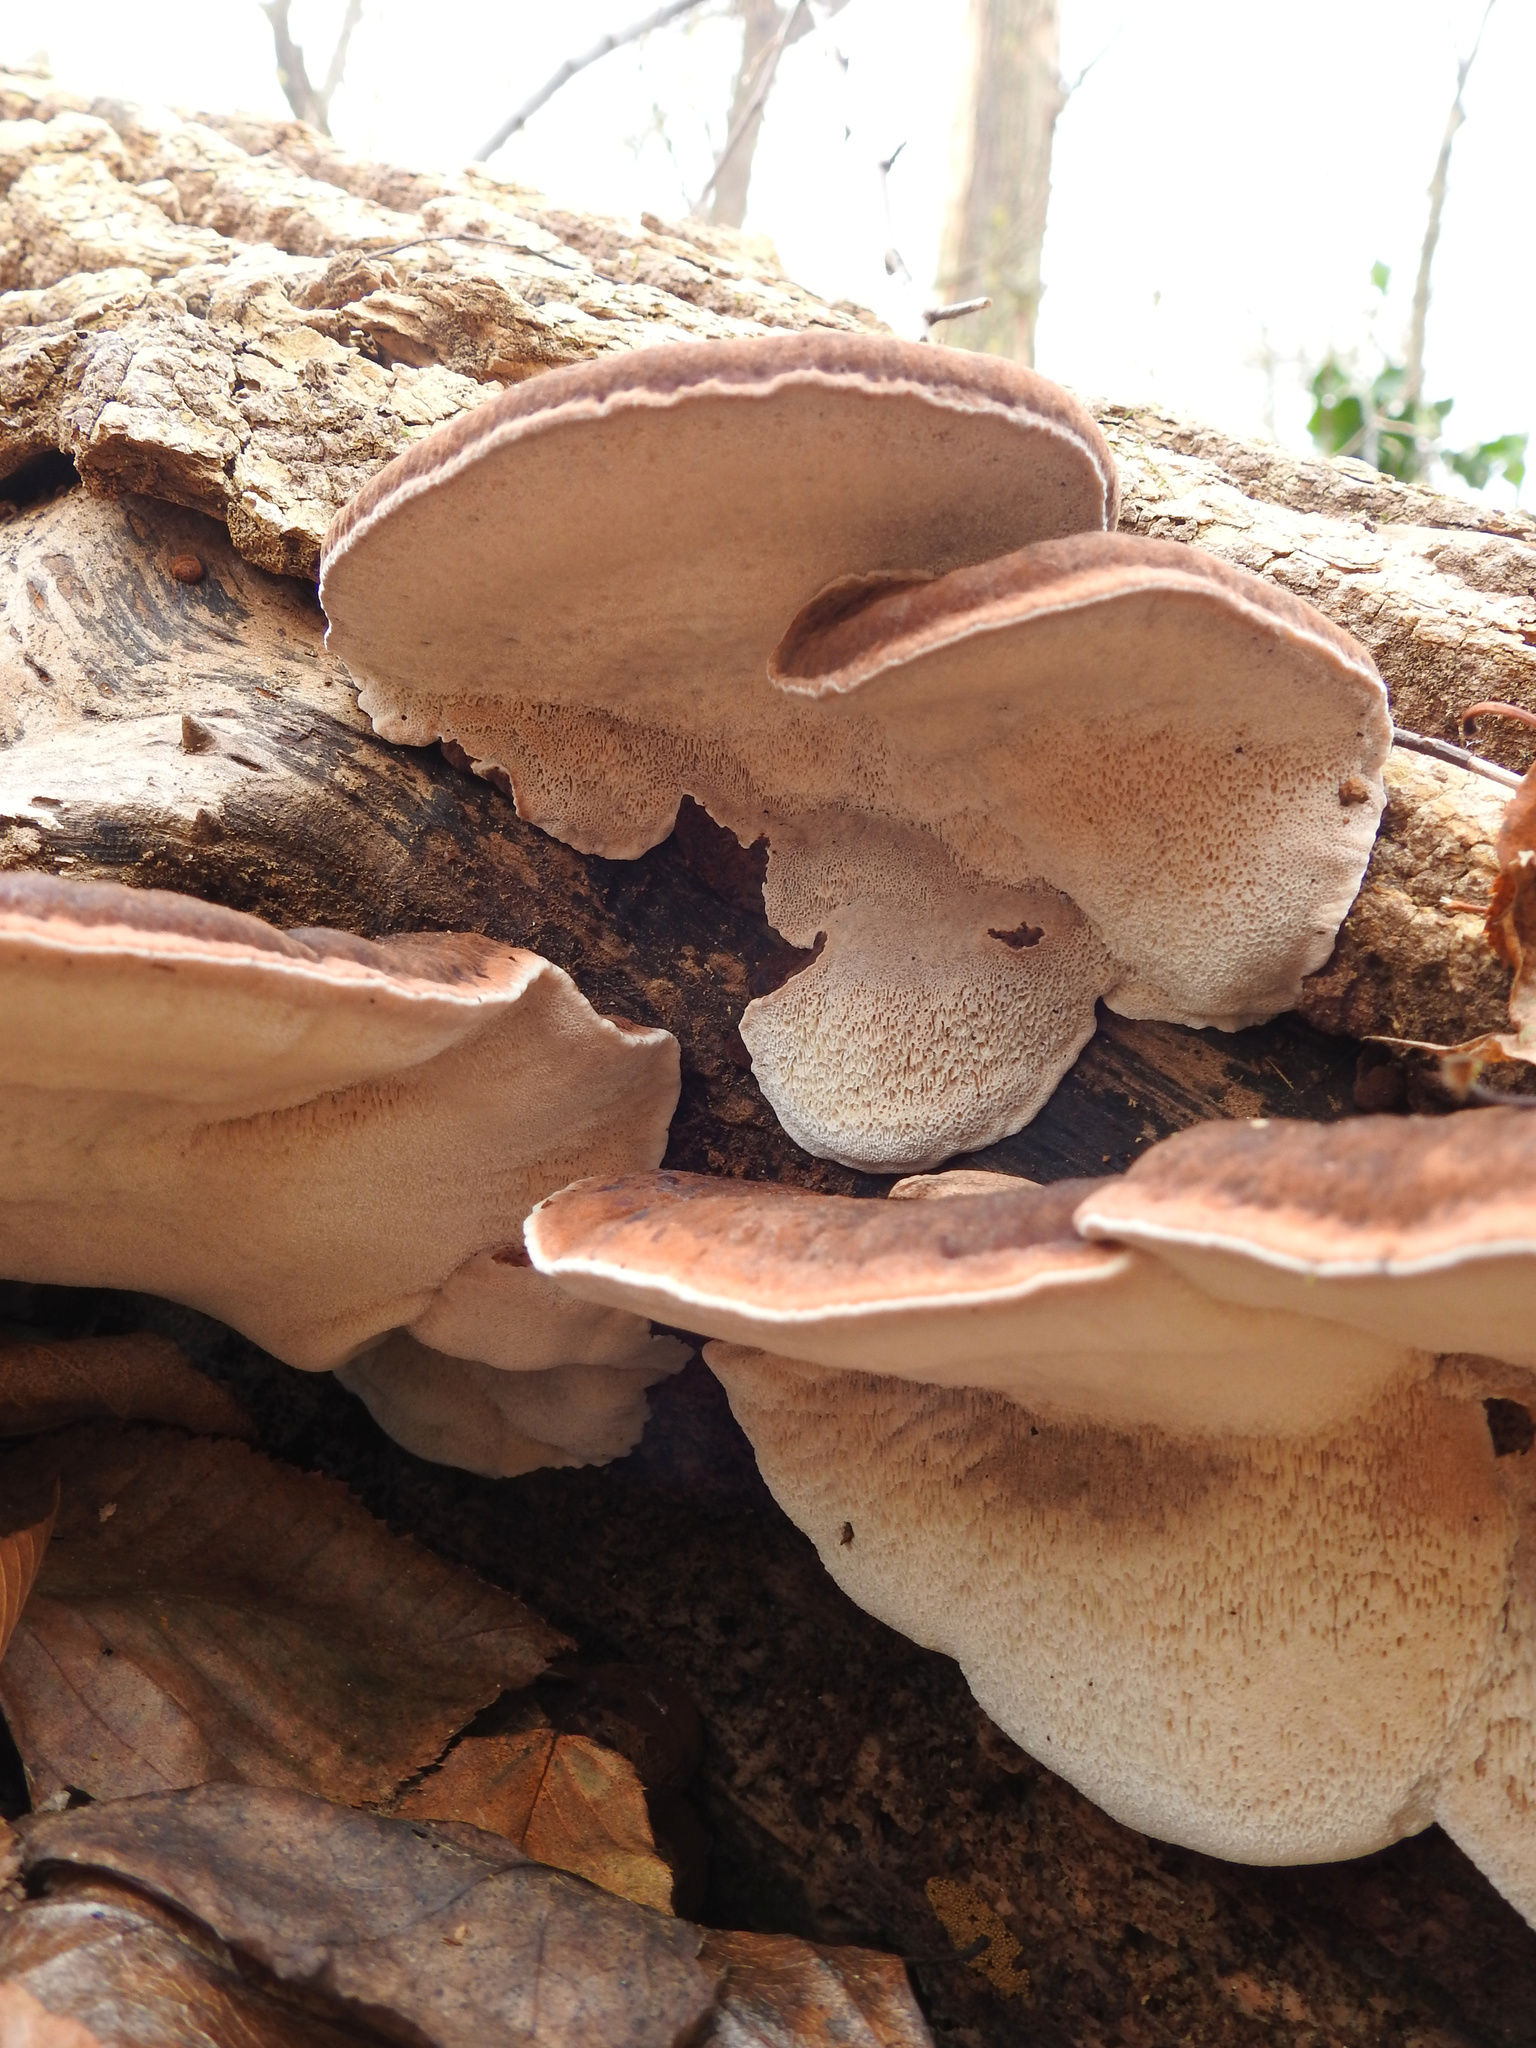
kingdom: Fungi
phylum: Basidiomycota
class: Agaricomycetes
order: Polyporales
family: Ischnodermataceae
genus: Ischnoderma
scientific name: Ischnoderma resinosum
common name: Resinous polypore
